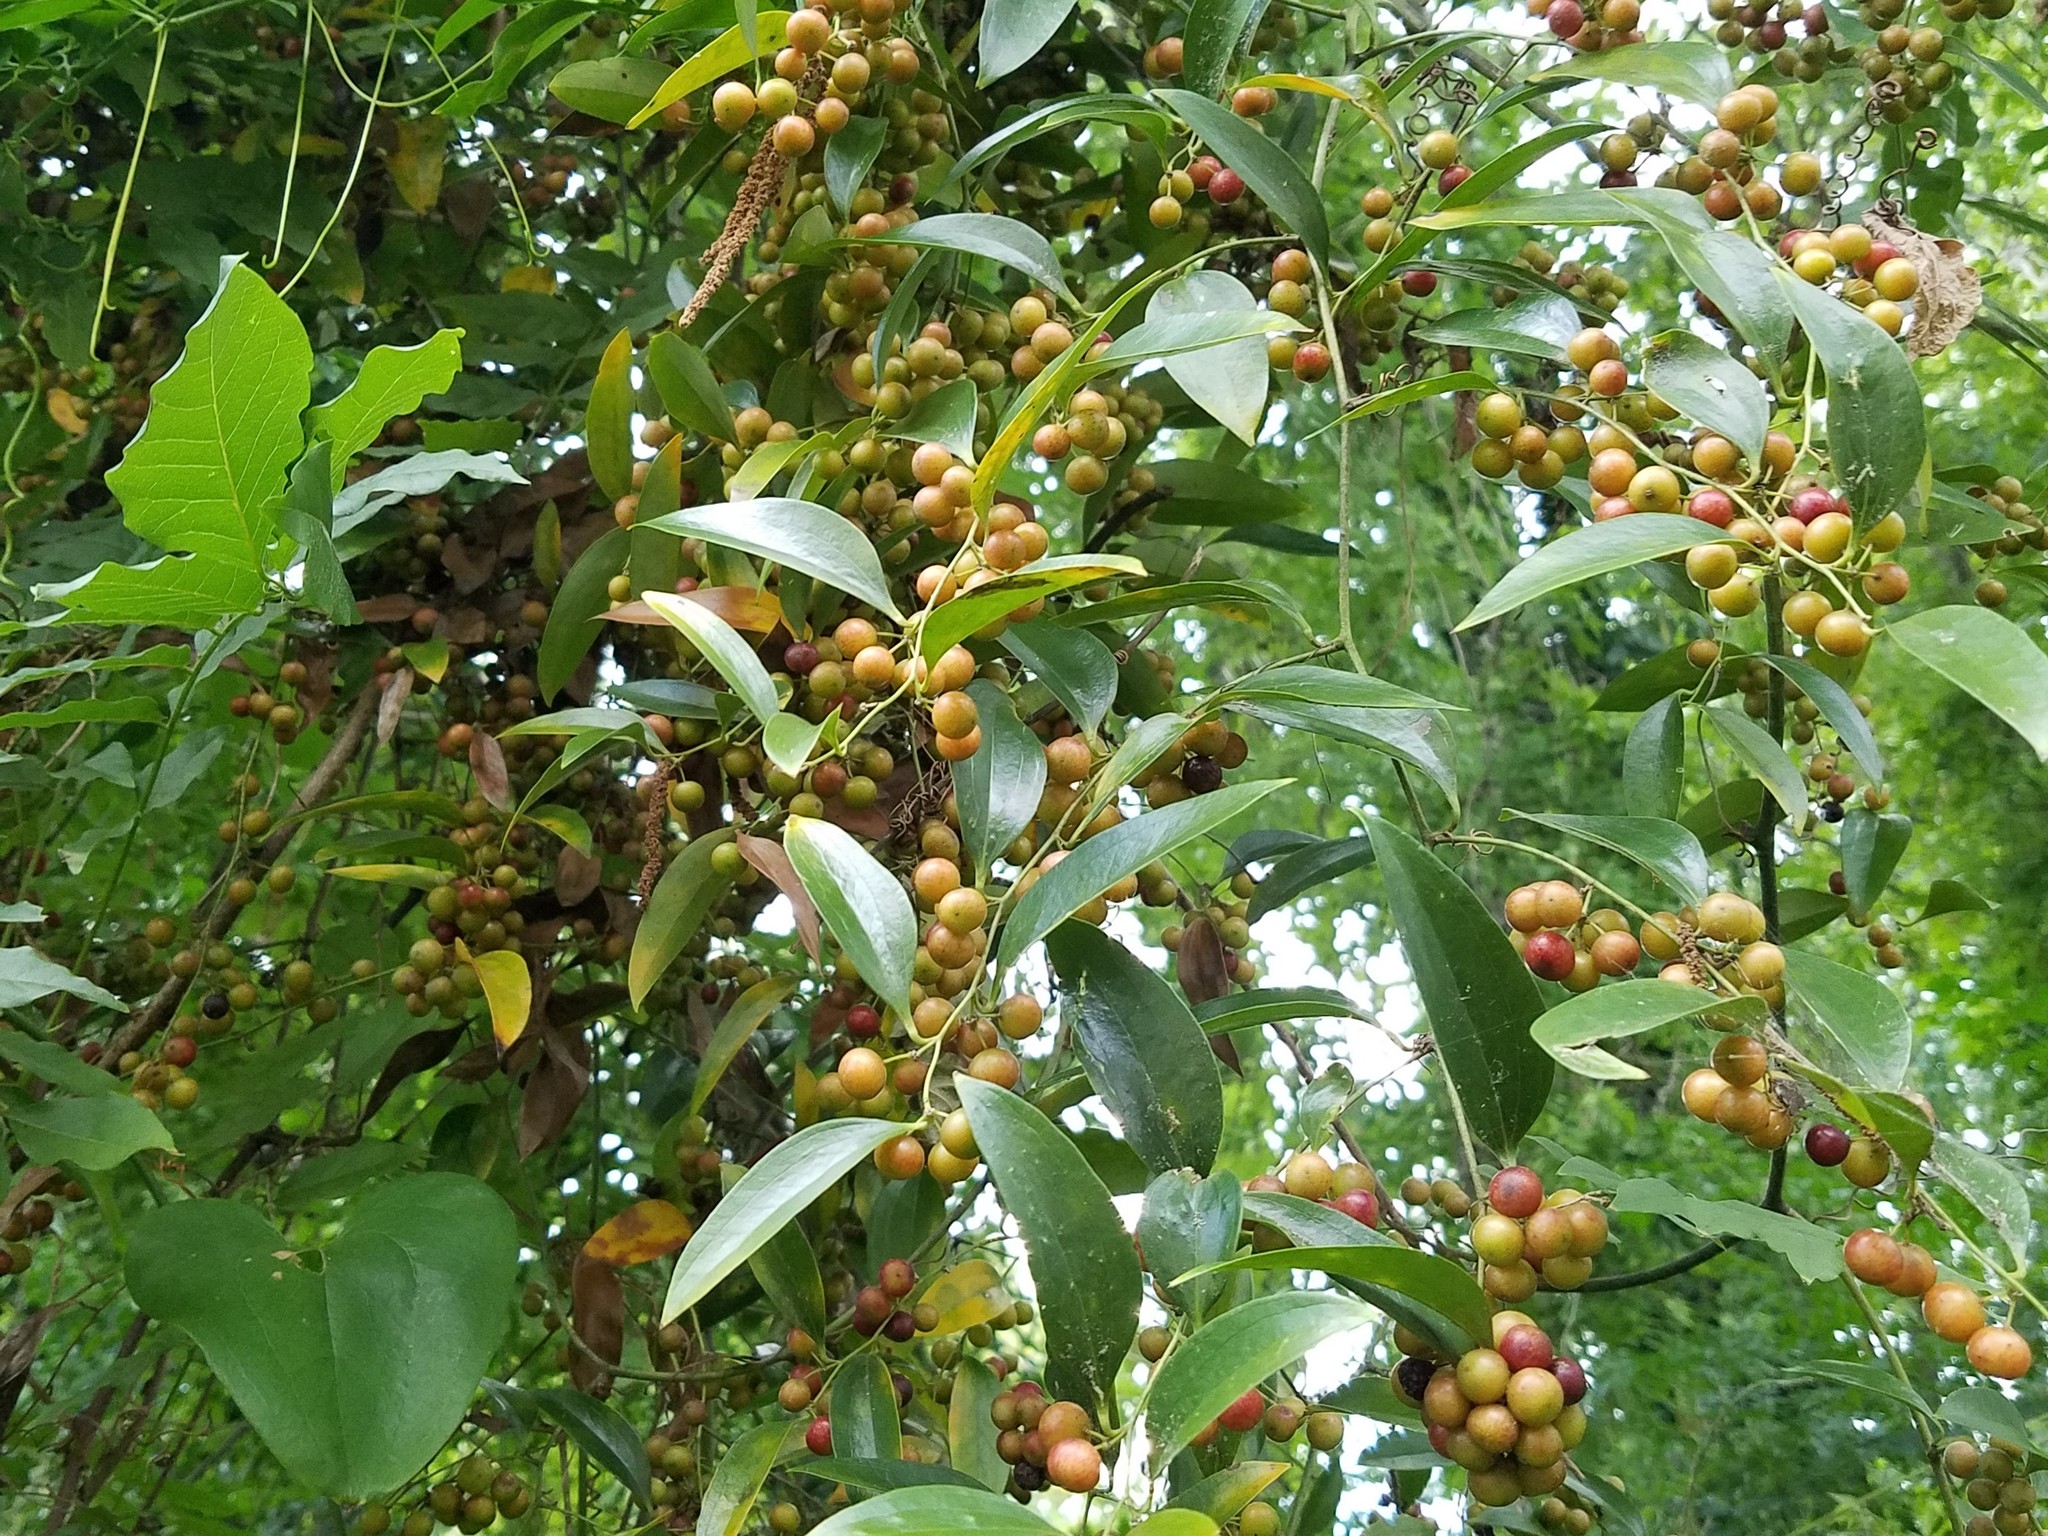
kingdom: Plantae
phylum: Tracheophyta
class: Liliopsida
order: Liliales
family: Smilacaceae
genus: Smilax
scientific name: Smilax maritima
